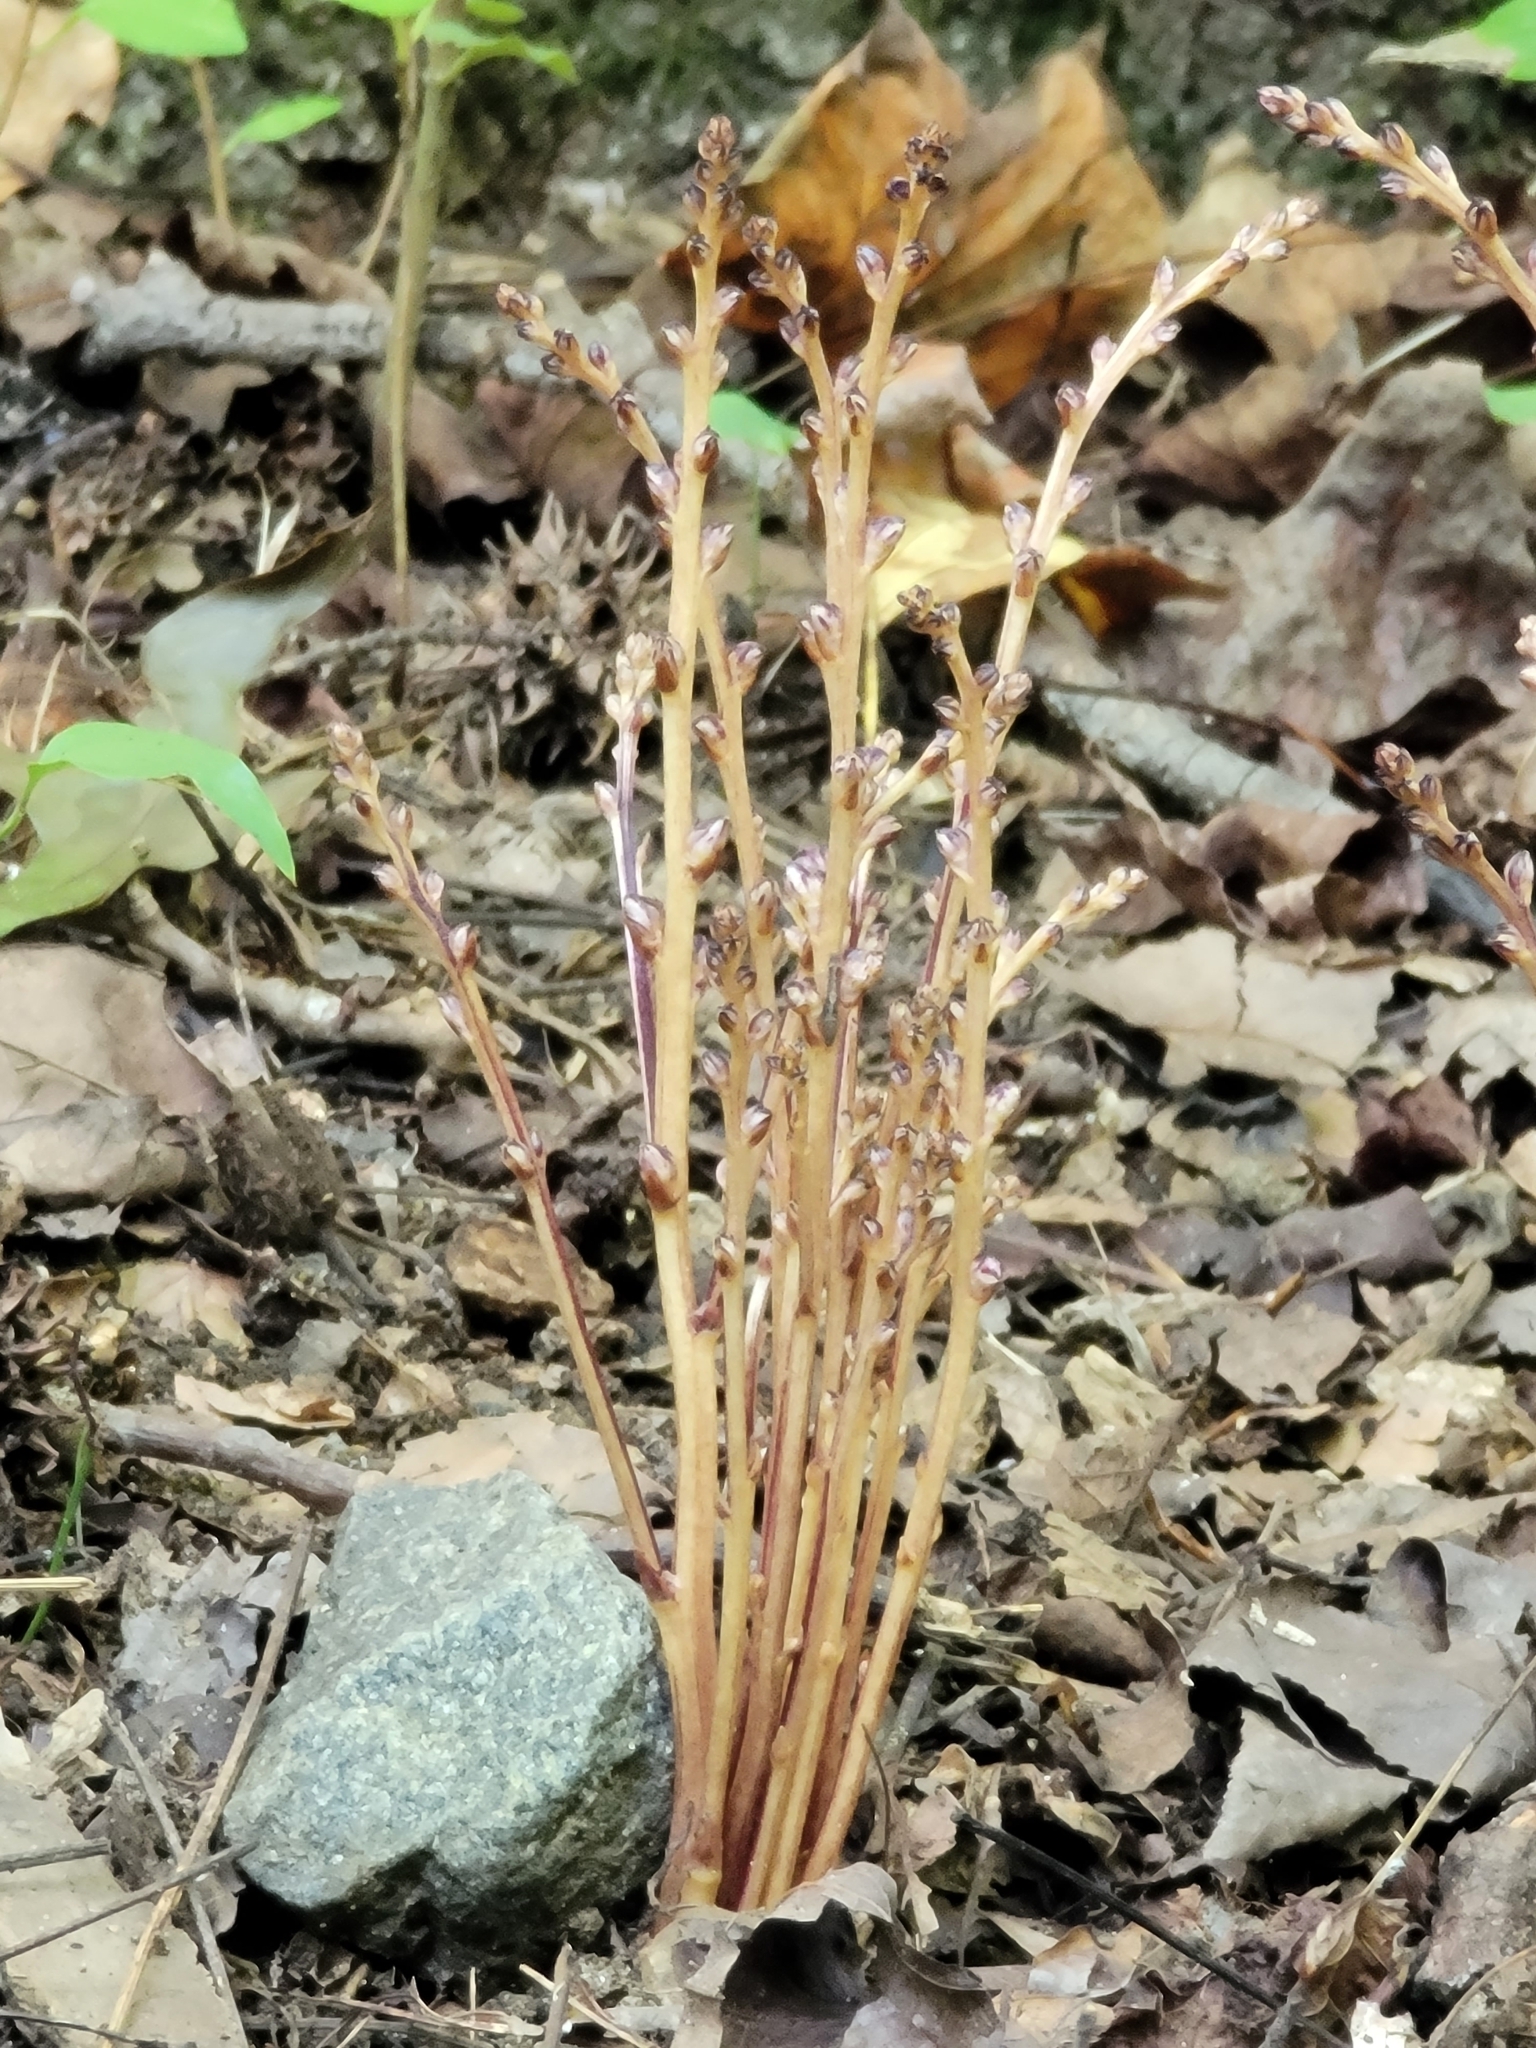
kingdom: Plantae
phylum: Tracheophyta
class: Magnoliopsida
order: Lamiales
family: Orobanchaceae
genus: Epifagus
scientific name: Epifagus virginiana
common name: Beechdrops
